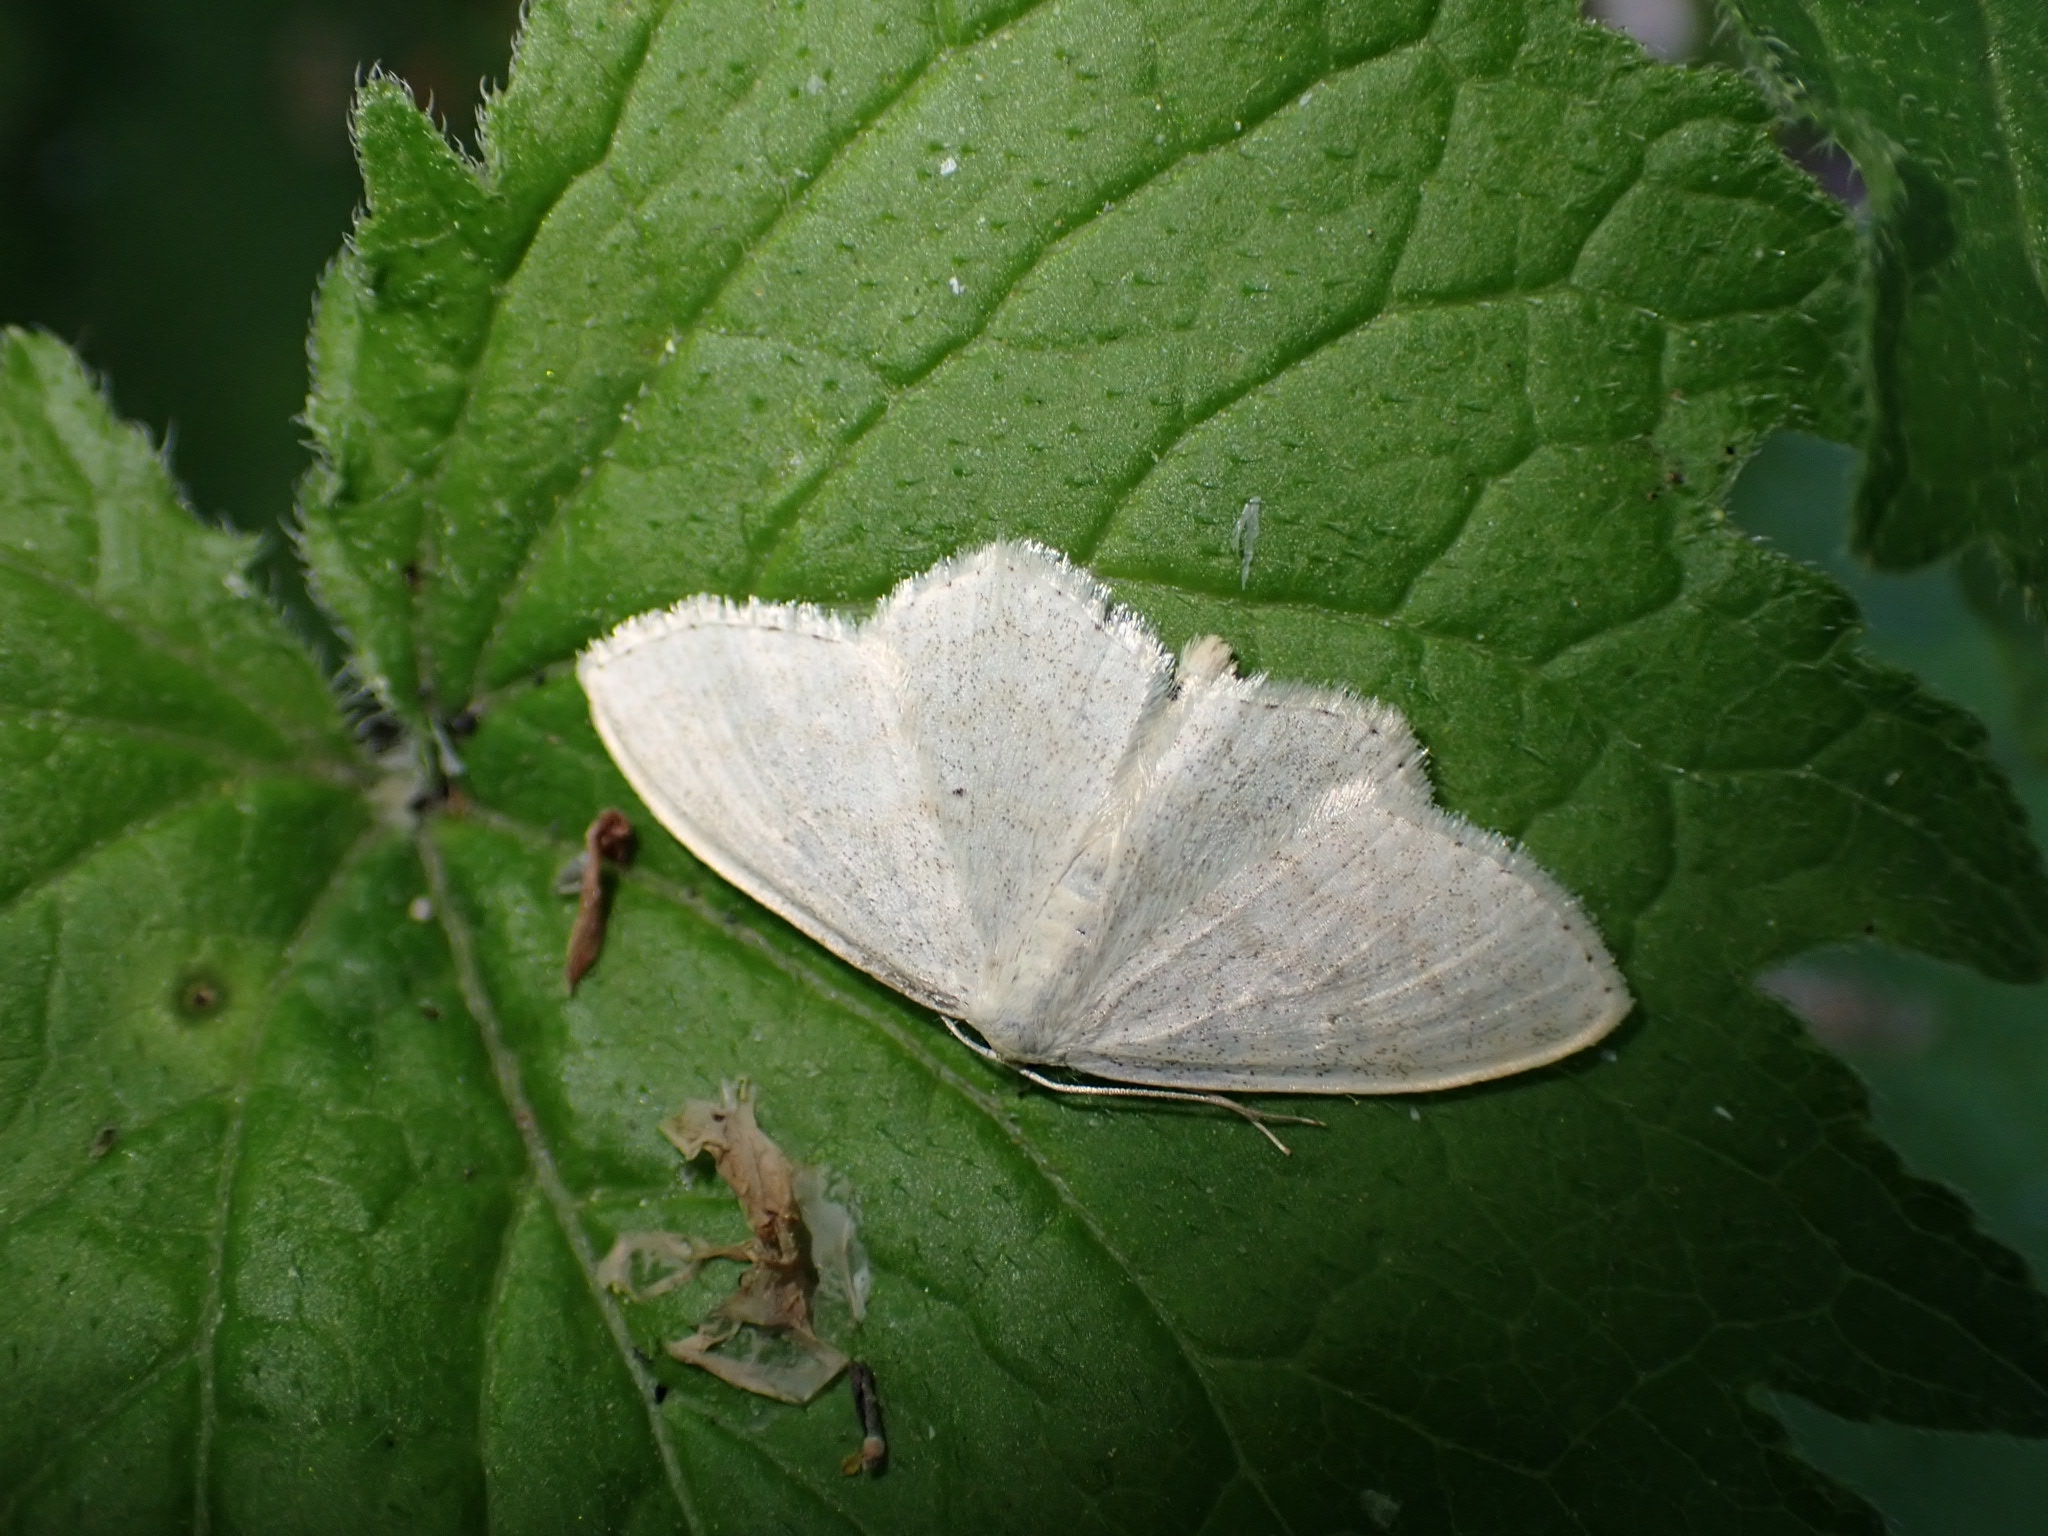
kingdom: Animalia
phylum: Arthropoda
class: Insecta
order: Lepidoptera
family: Geometridae
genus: Scopula
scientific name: Scopula floslactata
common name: Cream wave
